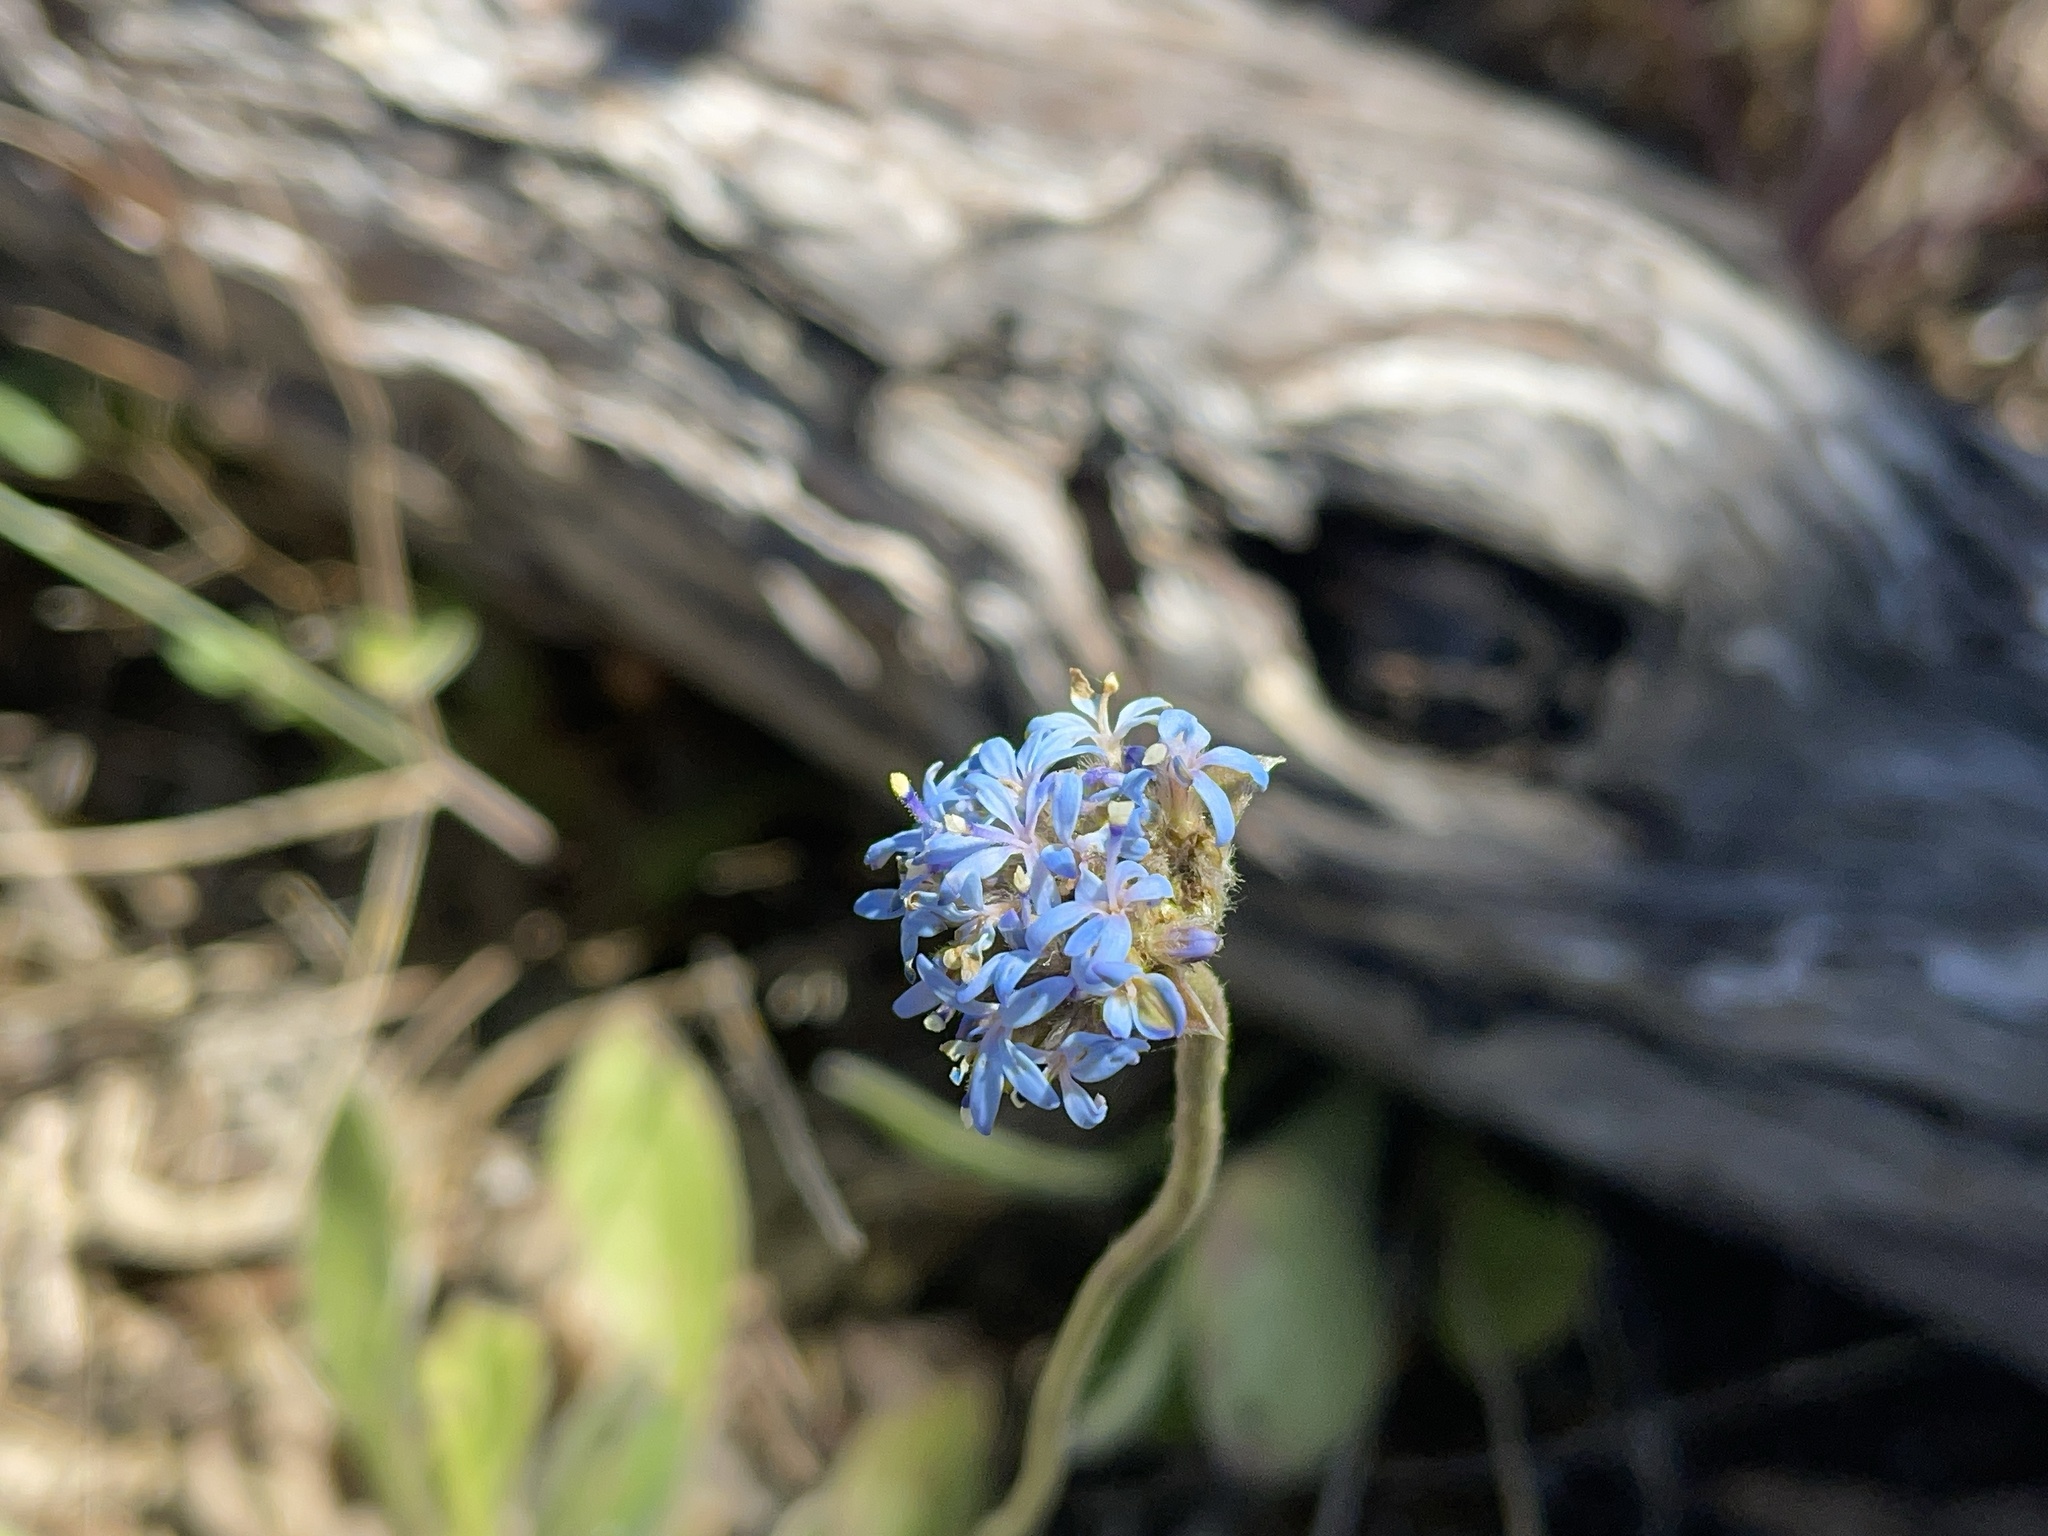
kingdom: Plantae
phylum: Tracheophyta
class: Magnoliopsida
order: Asterales
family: Goodeniaceae
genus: Brunonia
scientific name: Brunonia australis
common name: Blue pincushion
